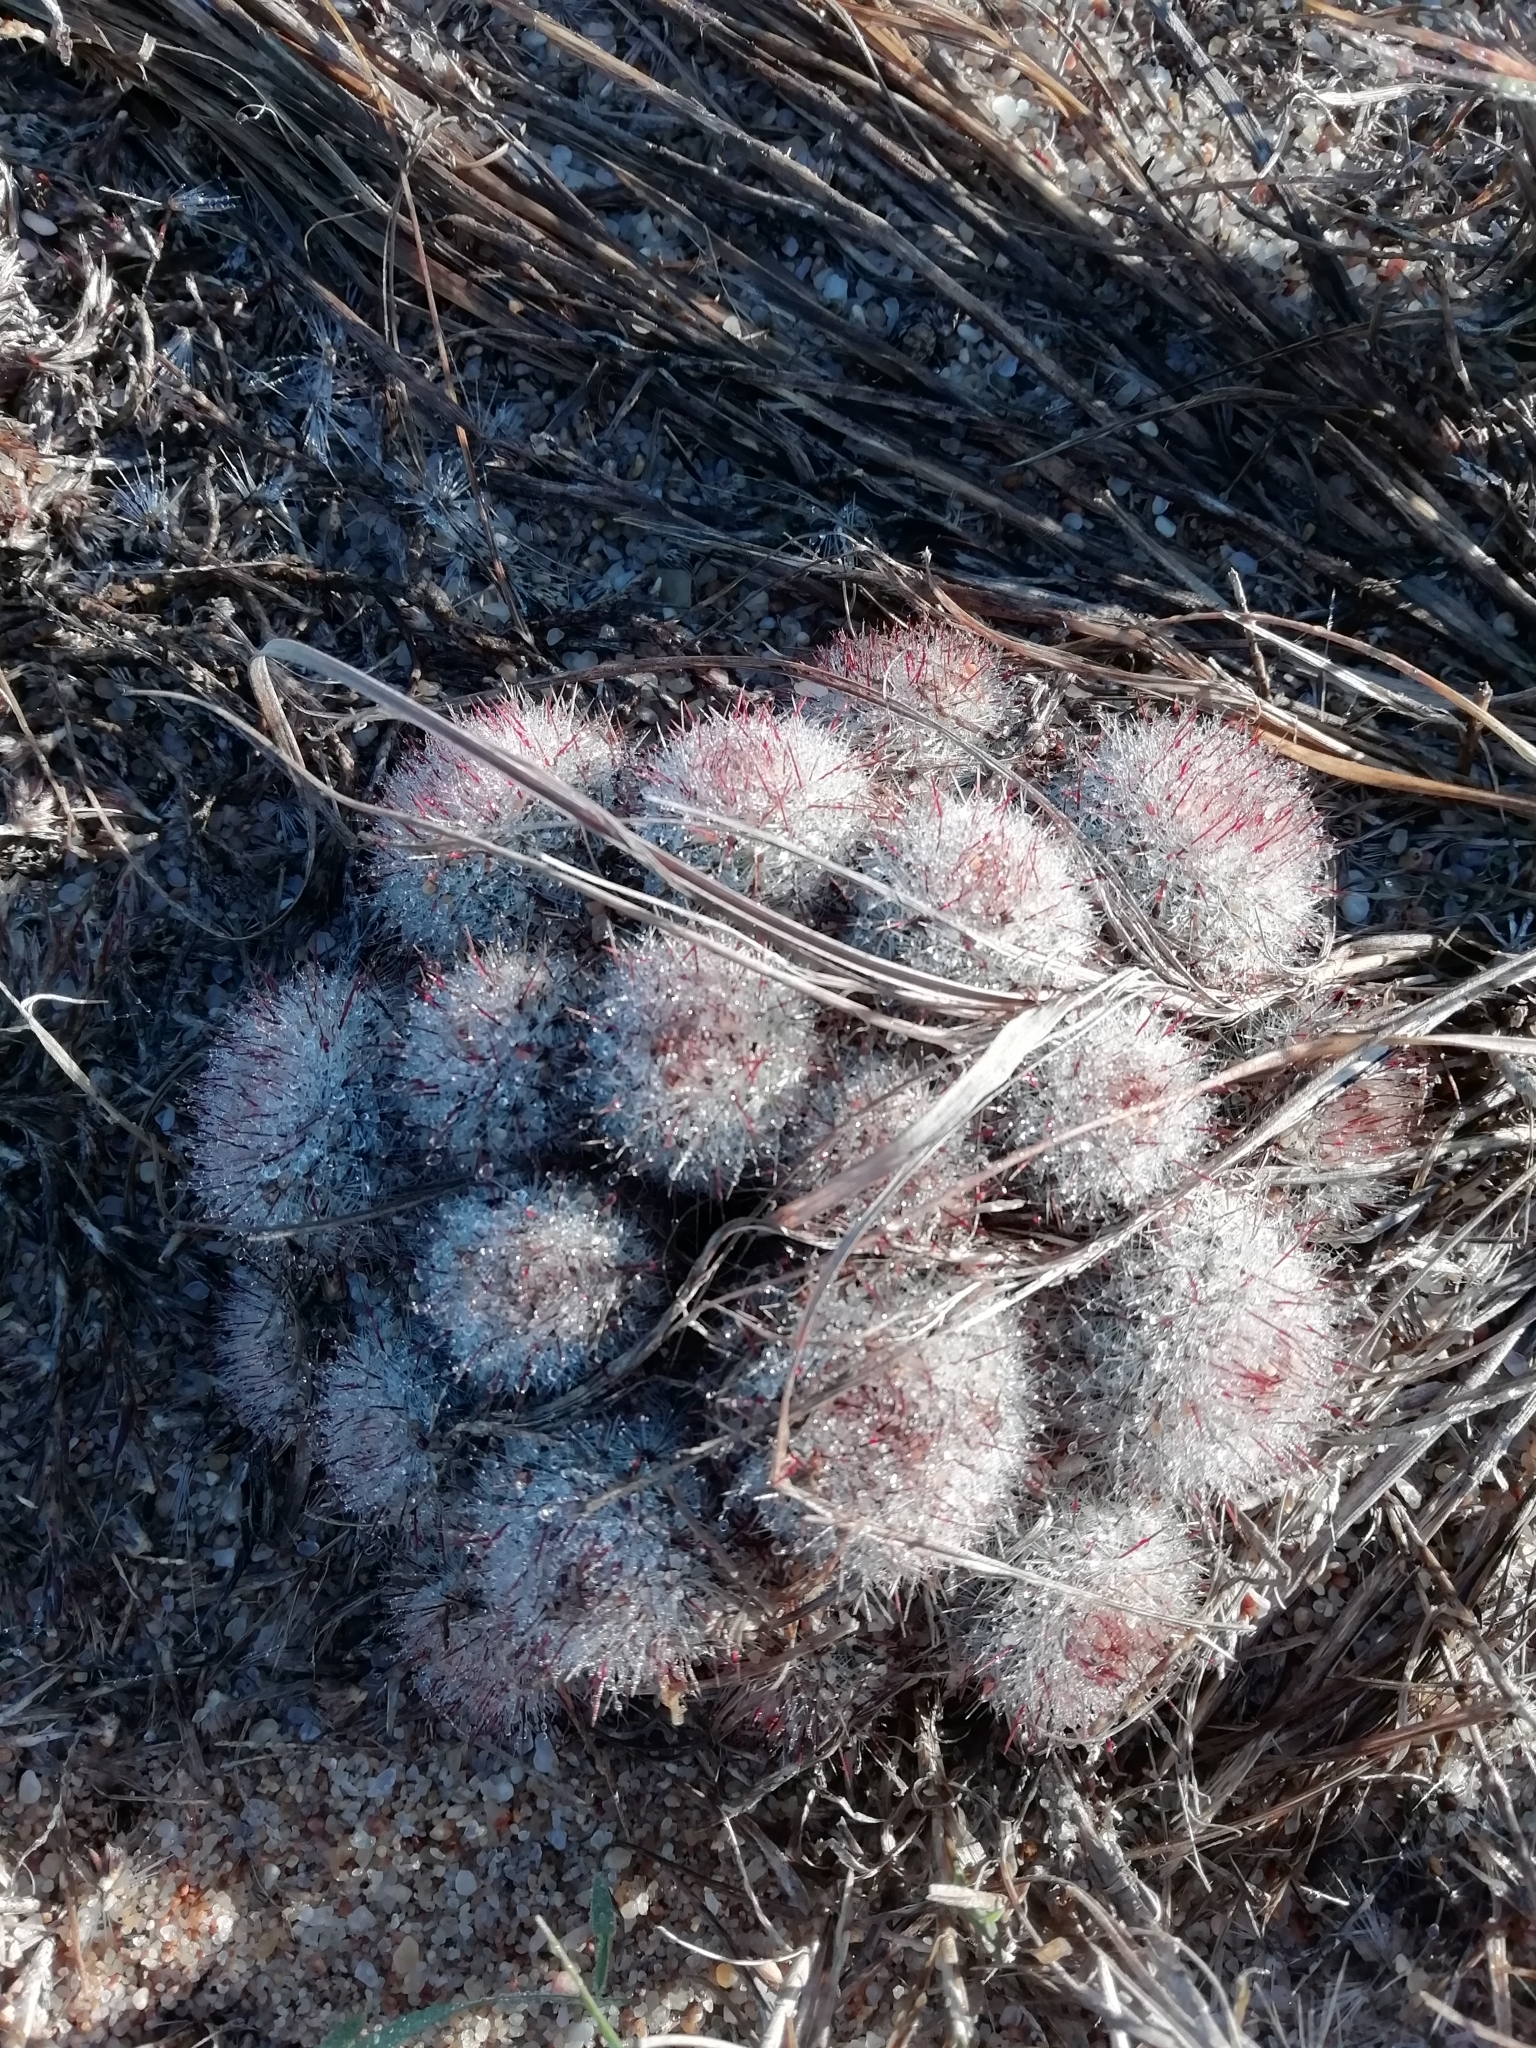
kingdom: Plantae
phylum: Tracheophyta
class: Magnoliopsida
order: Caryophyllales
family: Cactaceae
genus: Parodia
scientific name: Parodia scopa
